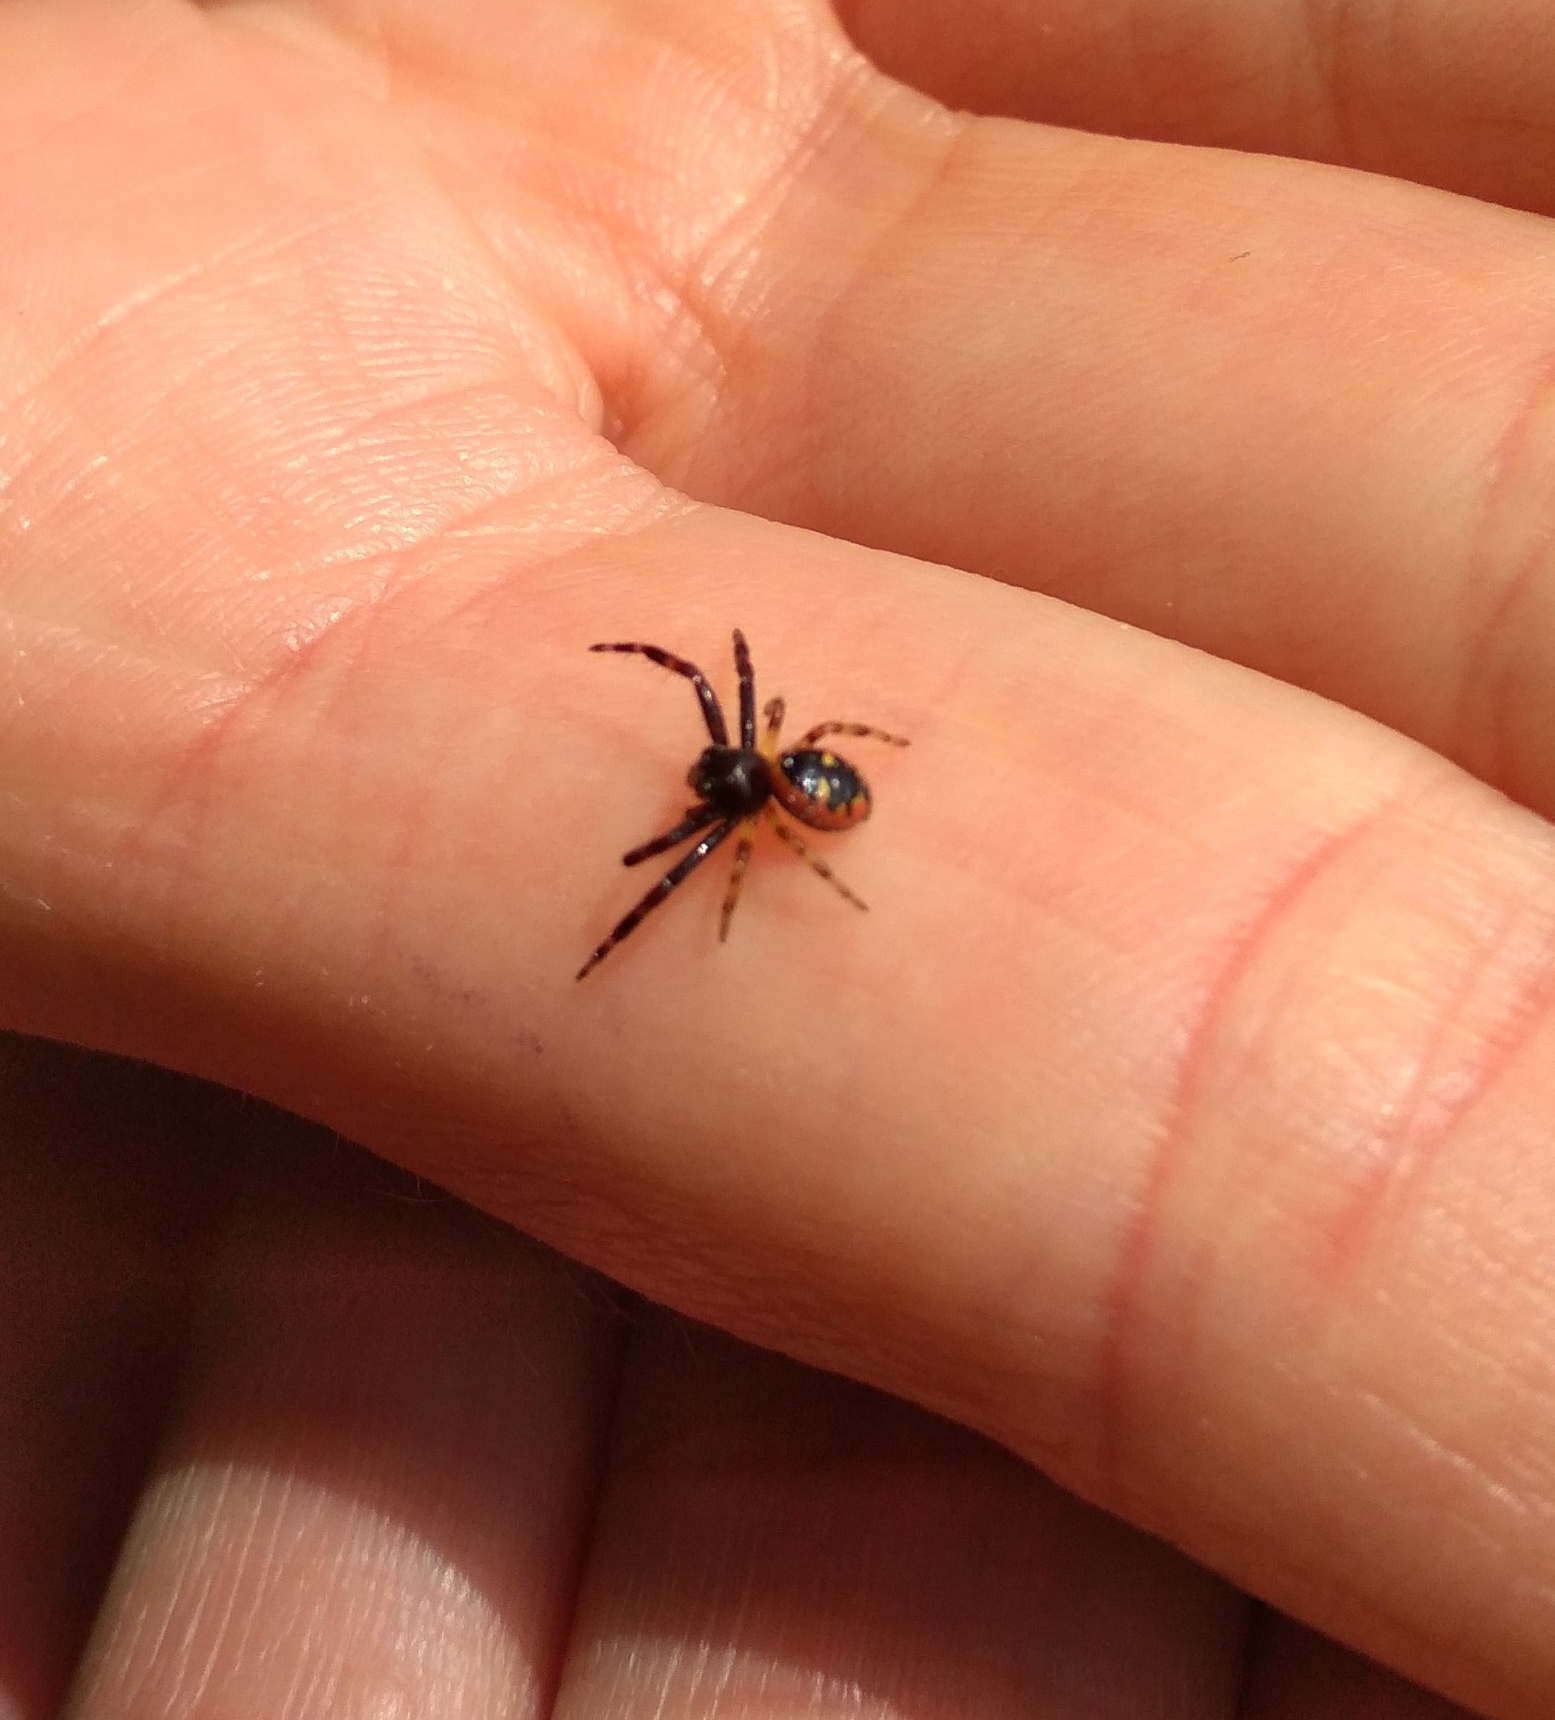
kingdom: Animalia
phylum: Arthropoda
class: Arachnida
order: Araneae
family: Thomisidae
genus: Synema
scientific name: Synema globosum
